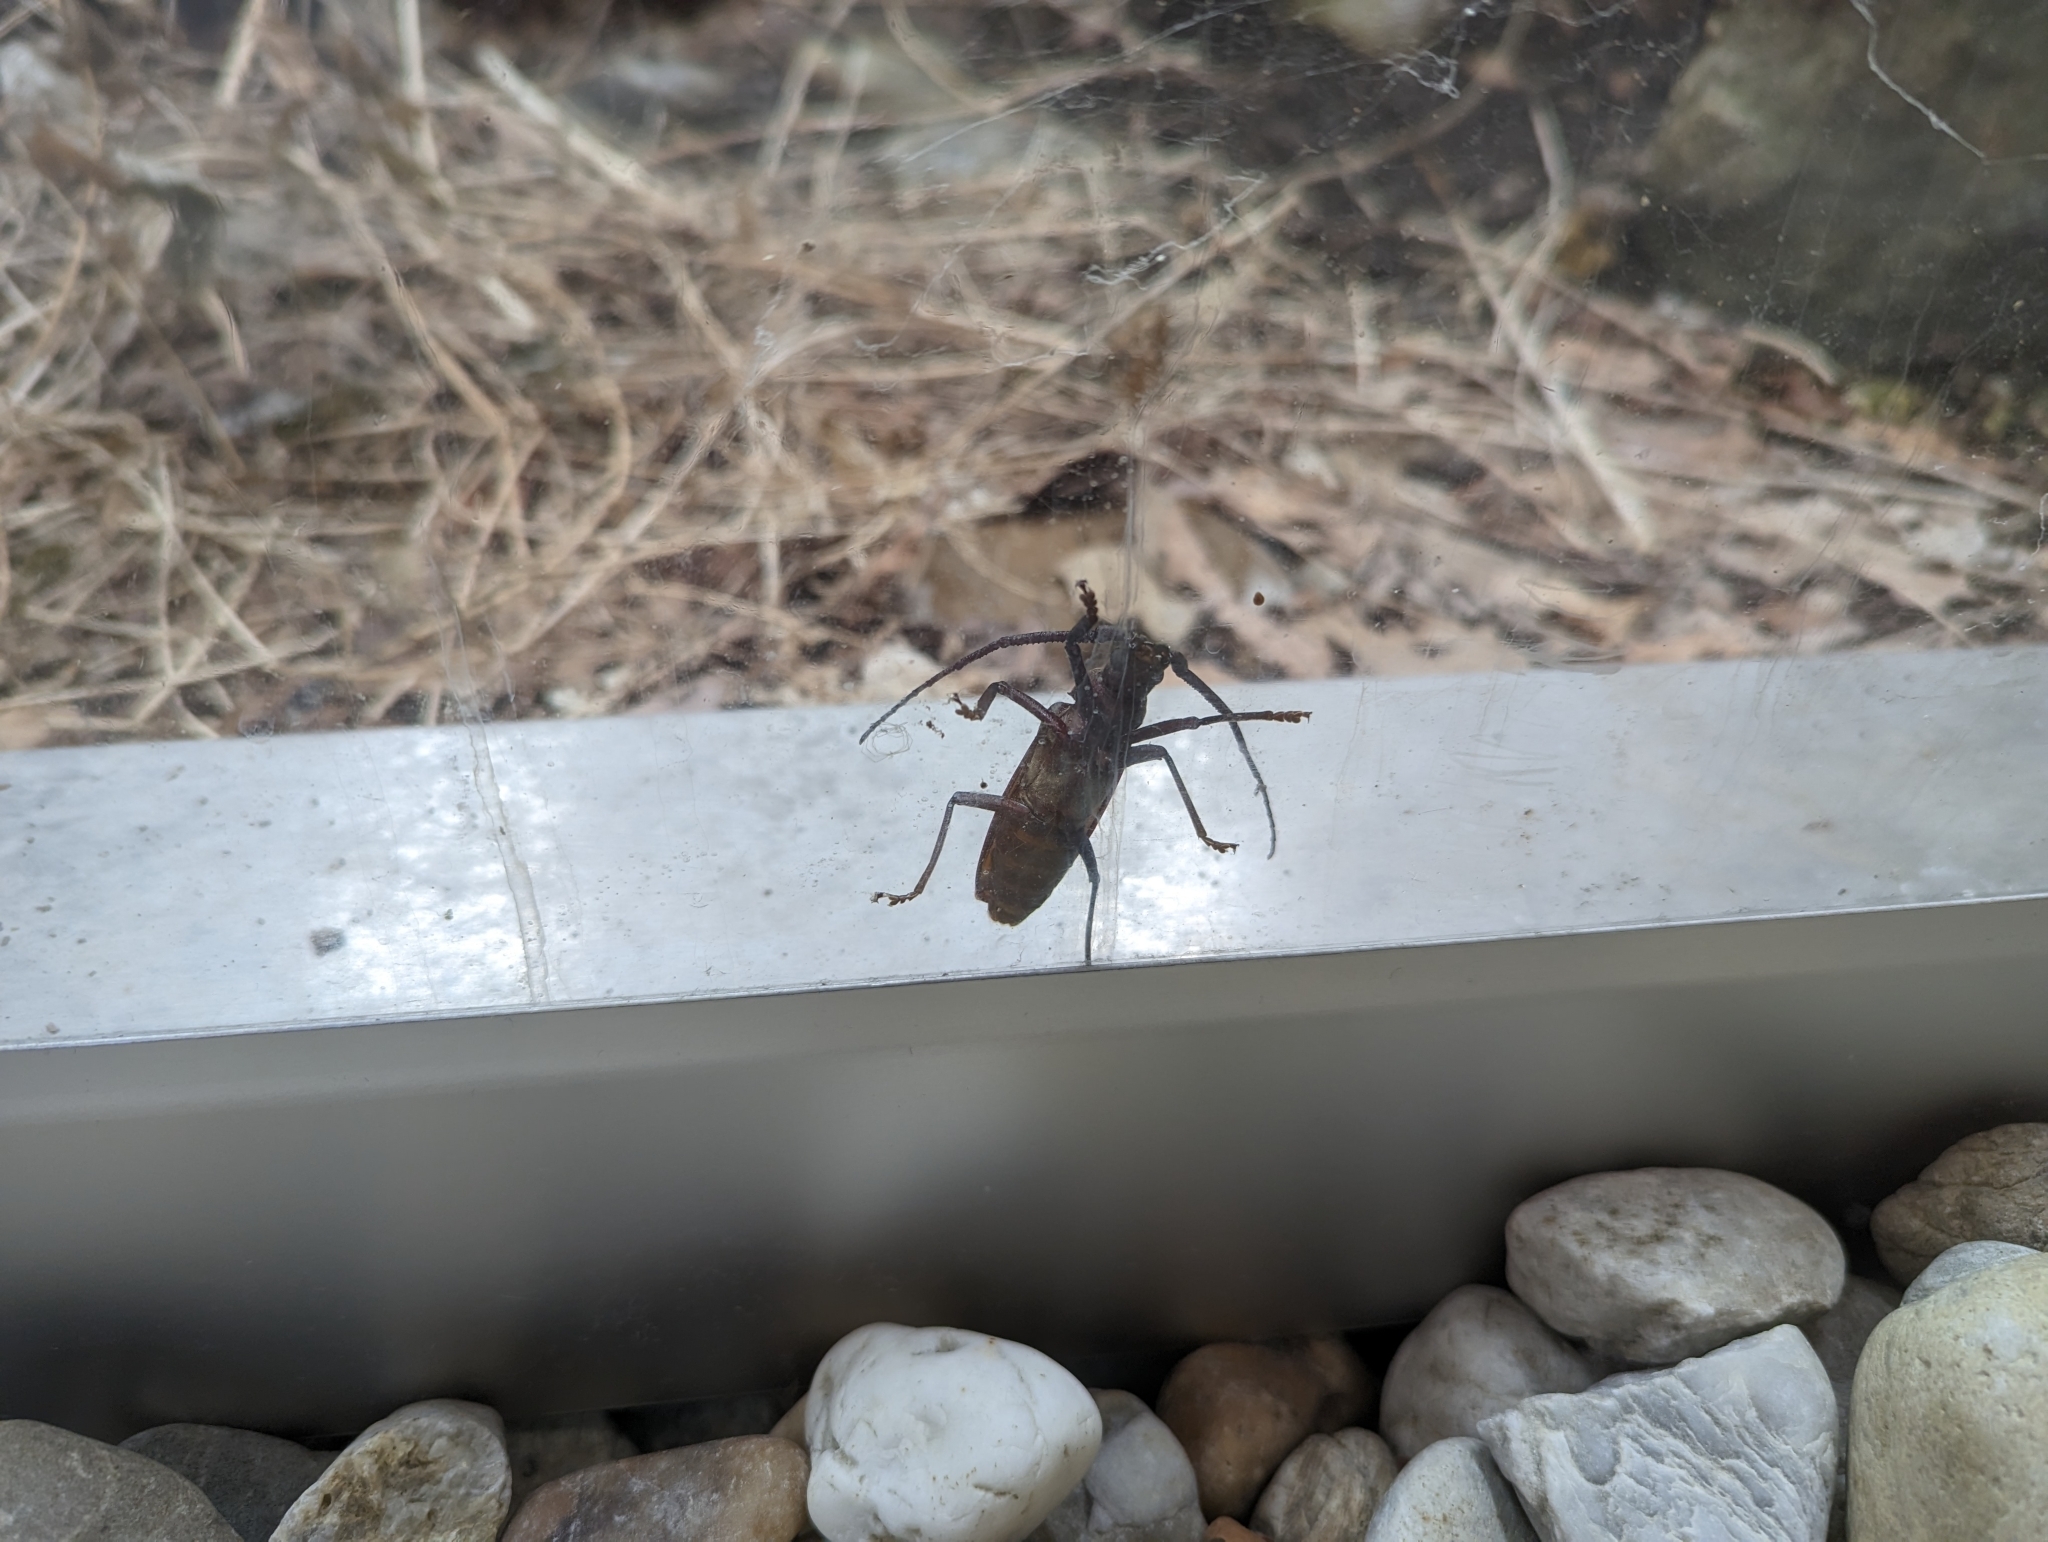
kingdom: Animalia
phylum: Arthropoda
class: Insecta
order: Coleoptera
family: Cerambycidae
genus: Aegosoma
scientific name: Aegosoma scabricorne
